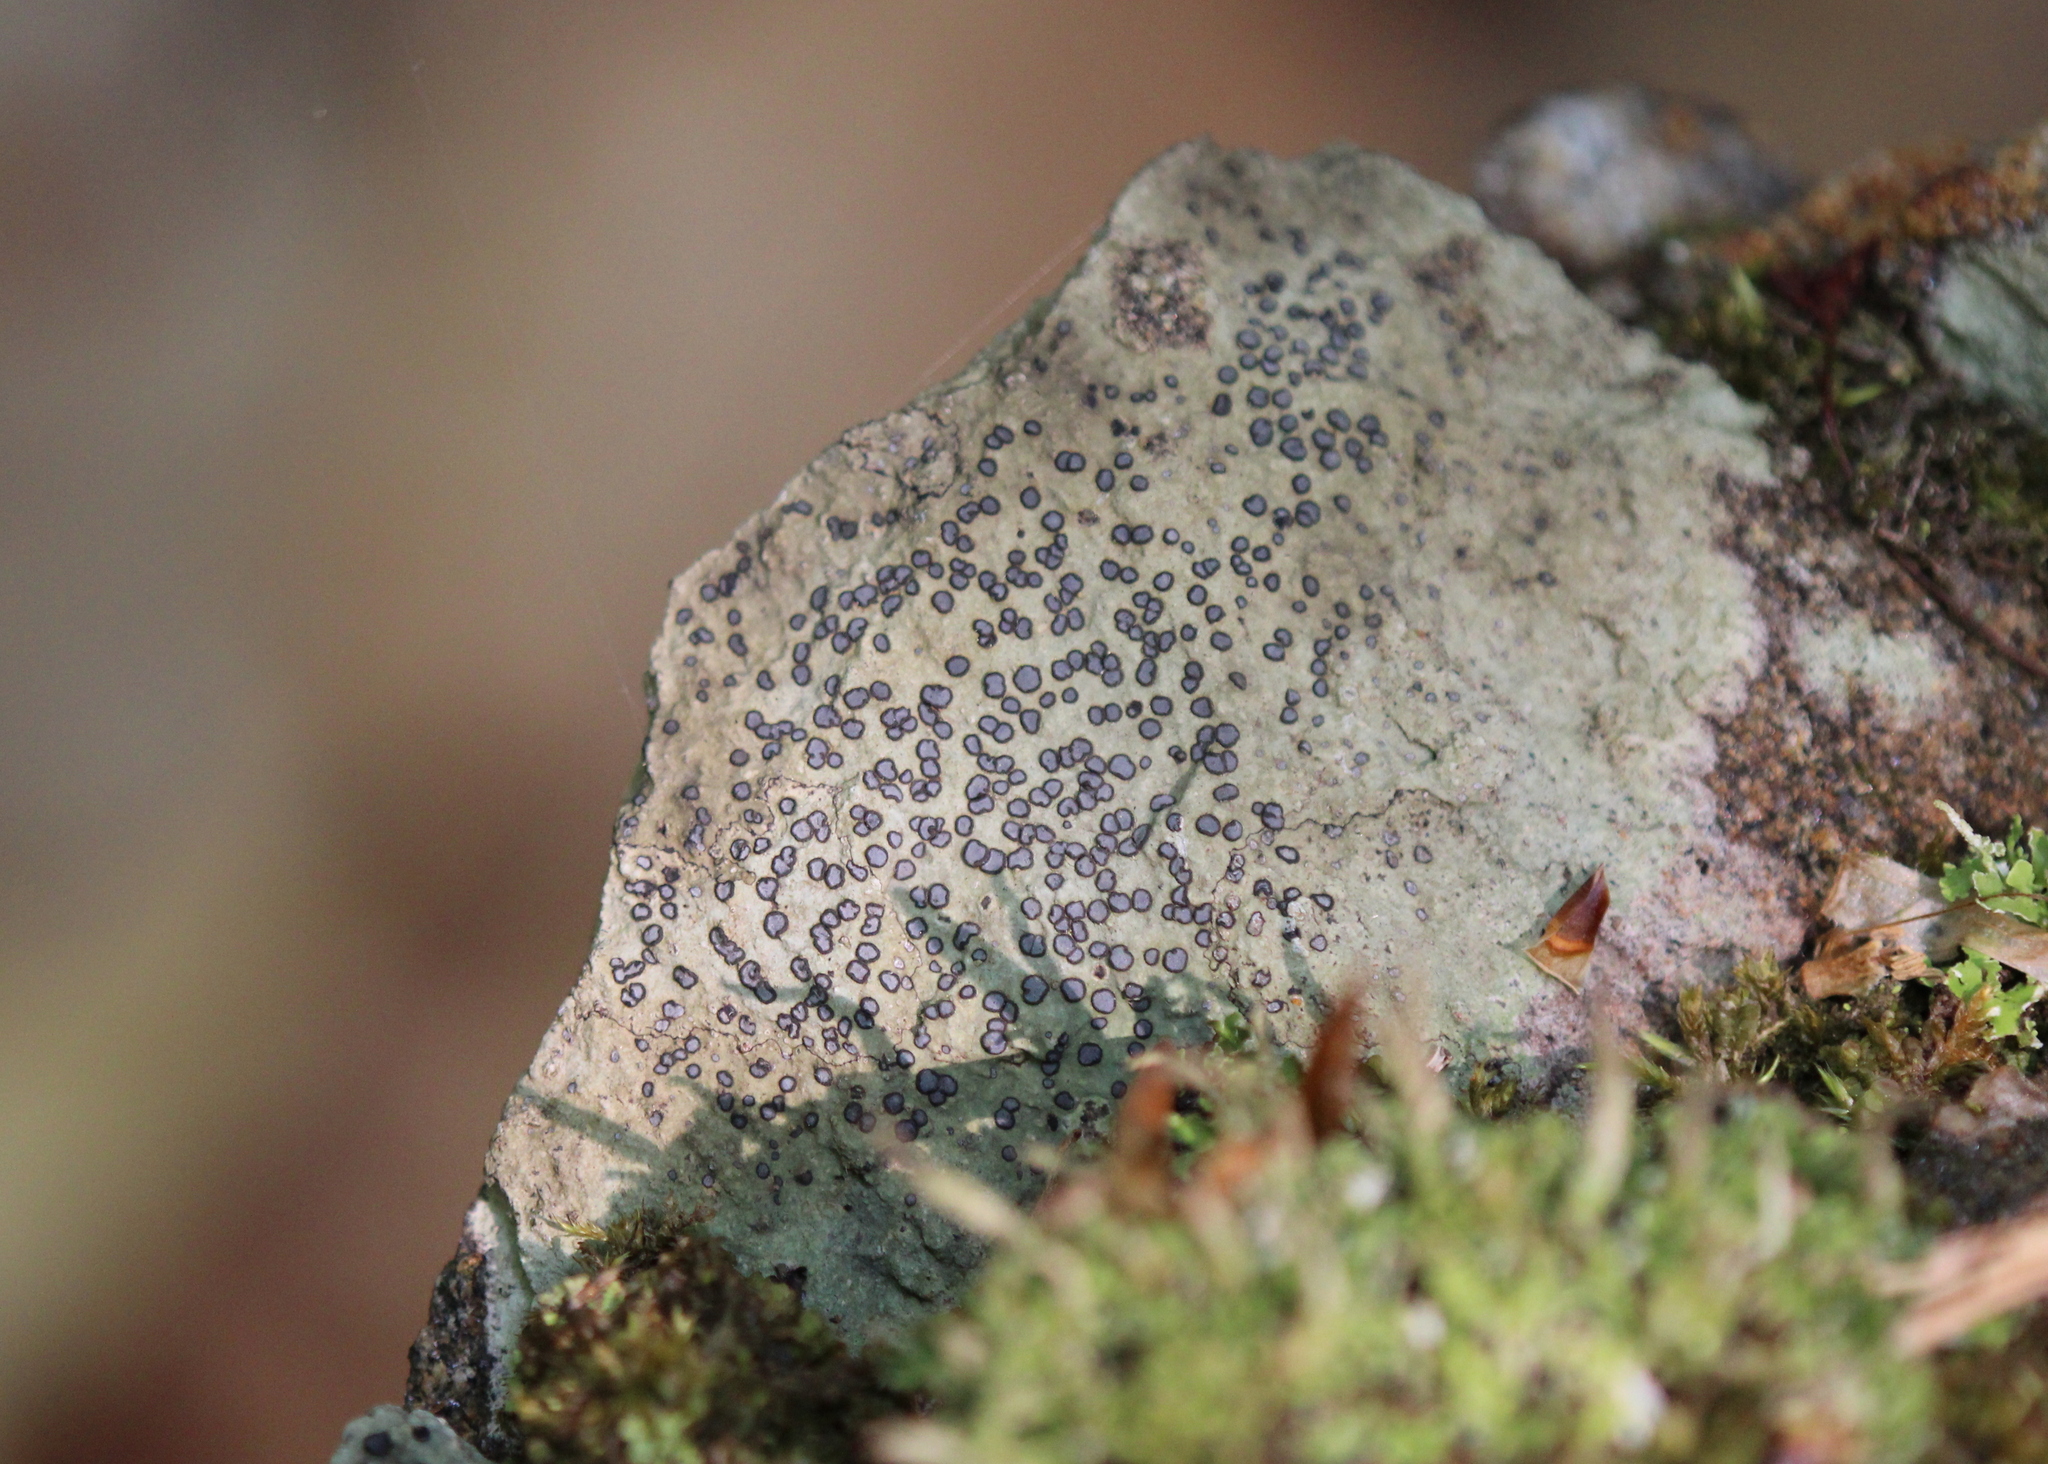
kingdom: Fungi
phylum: Ascomycota
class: Lecanoromycetes
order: Lecideales
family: Lecideaceae
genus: Porpidia
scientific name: Porpidia albocaerulescens
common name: Smokey-eyed boulder lichen
